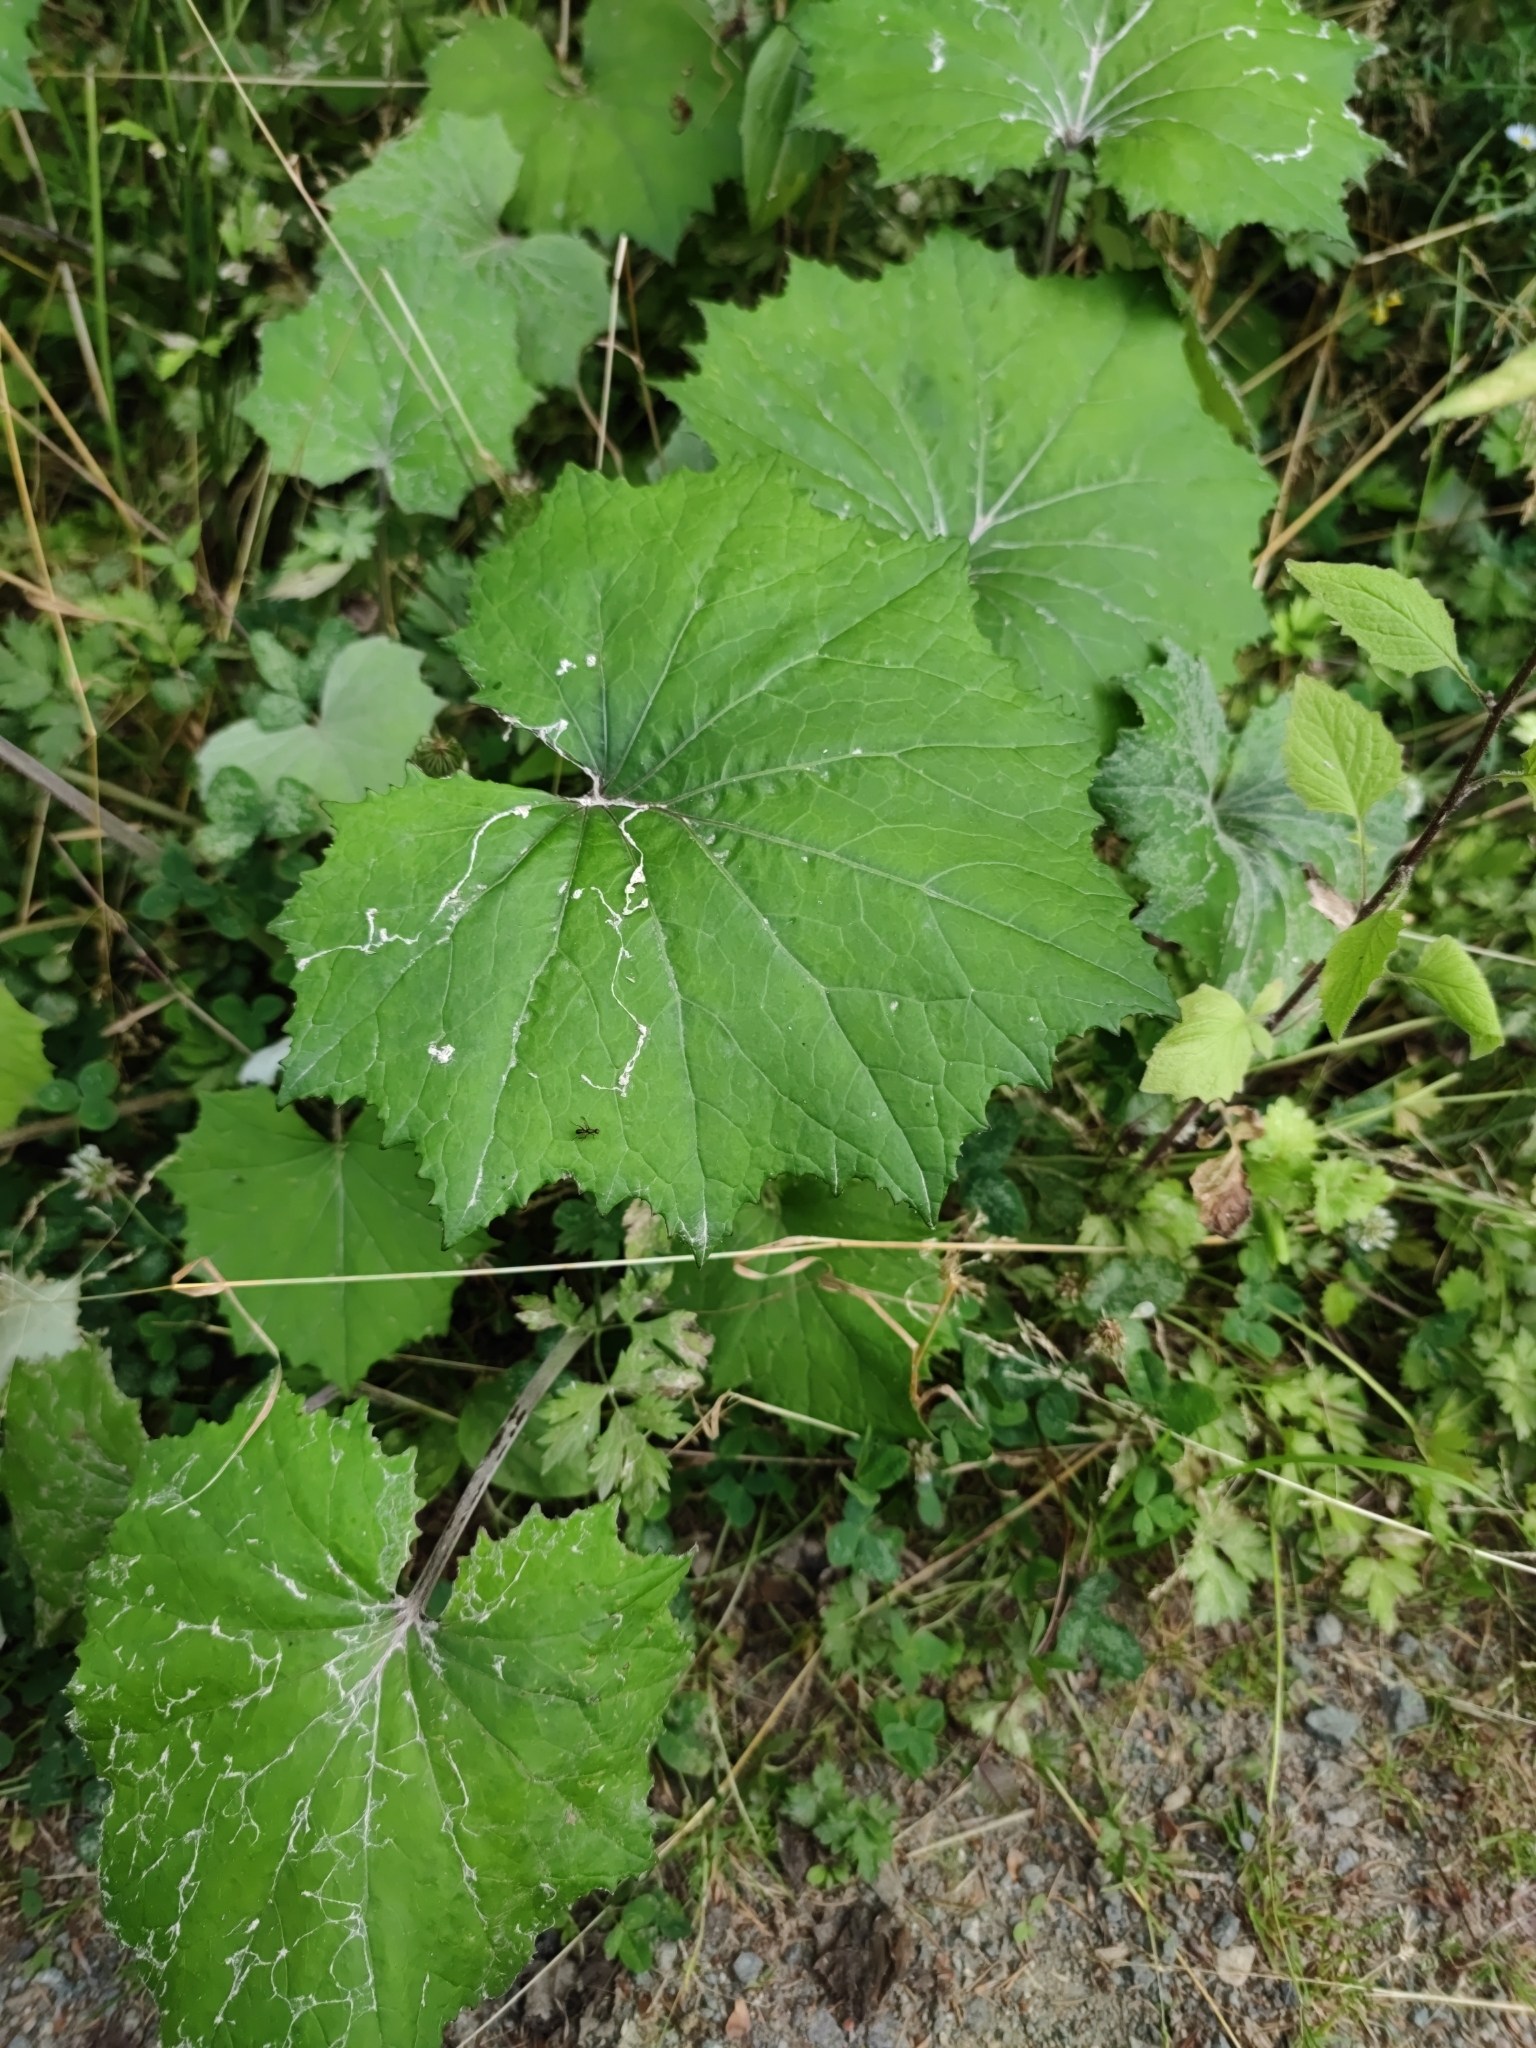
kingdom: Plantae
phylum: Tracheophyta
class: Magnoliopsida
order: Asterales
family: Asteraceae
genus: Tussilago
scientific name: Tussilago farfara
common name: Coltsfoot
